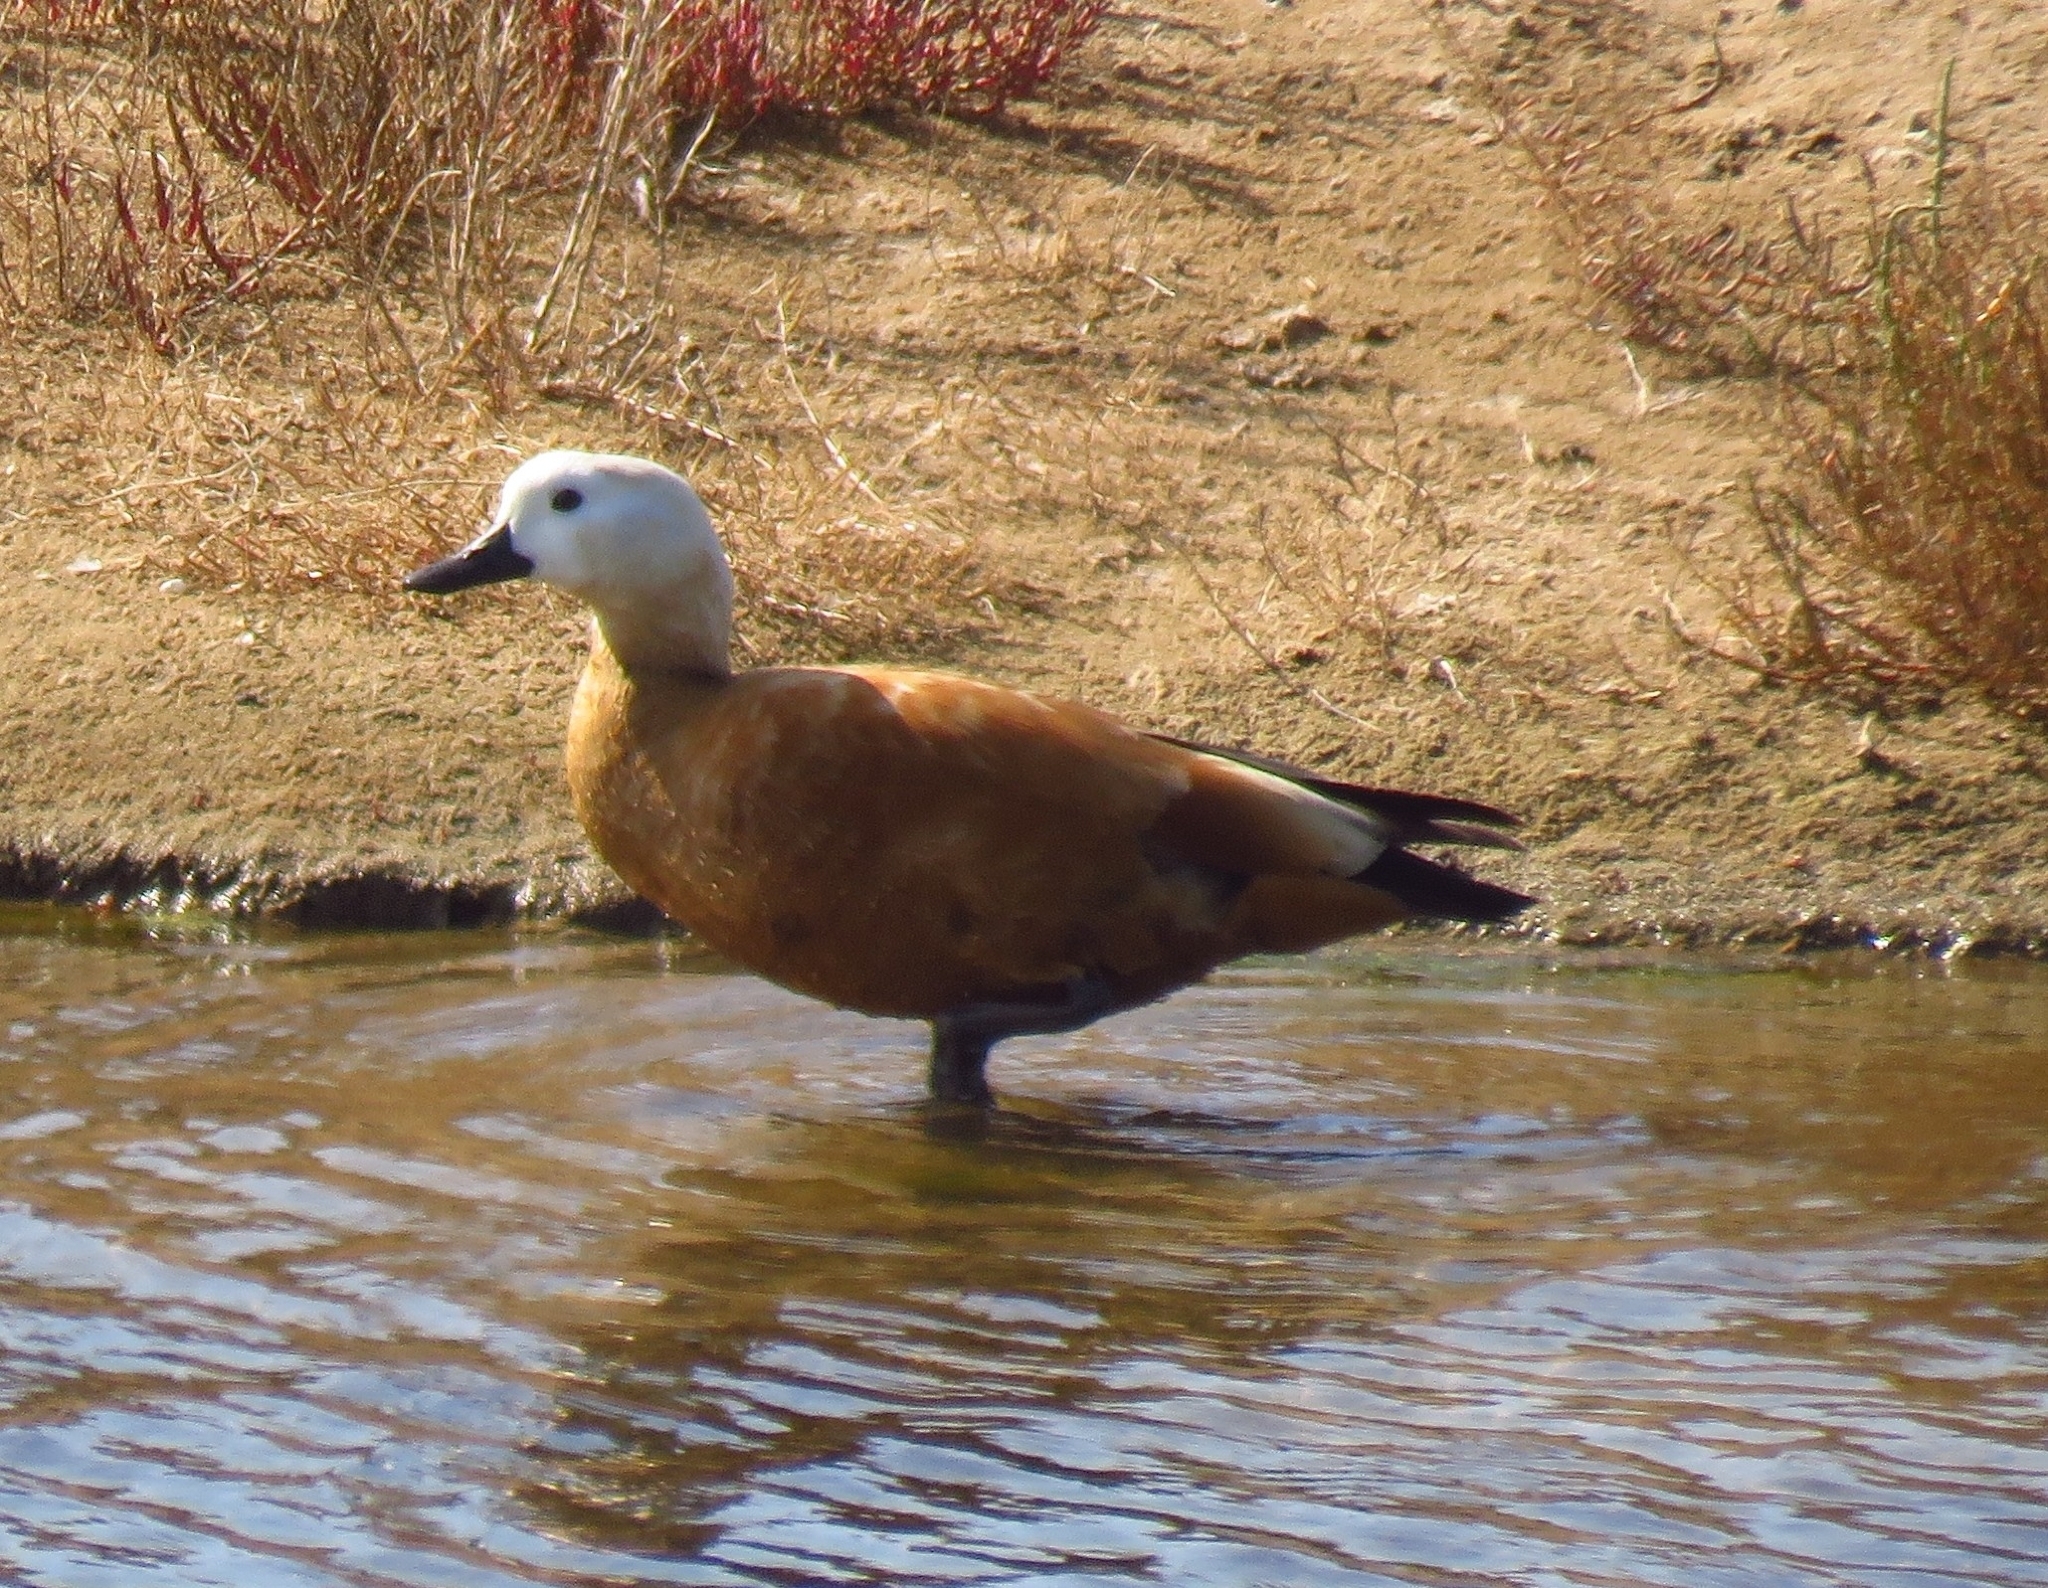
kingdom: Animalia
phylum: Chordata
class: Aves
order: Anseriformes
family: Anatidae
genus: Tadorna
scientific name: Tadorna ferruginea
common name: Ruddy shelduck
